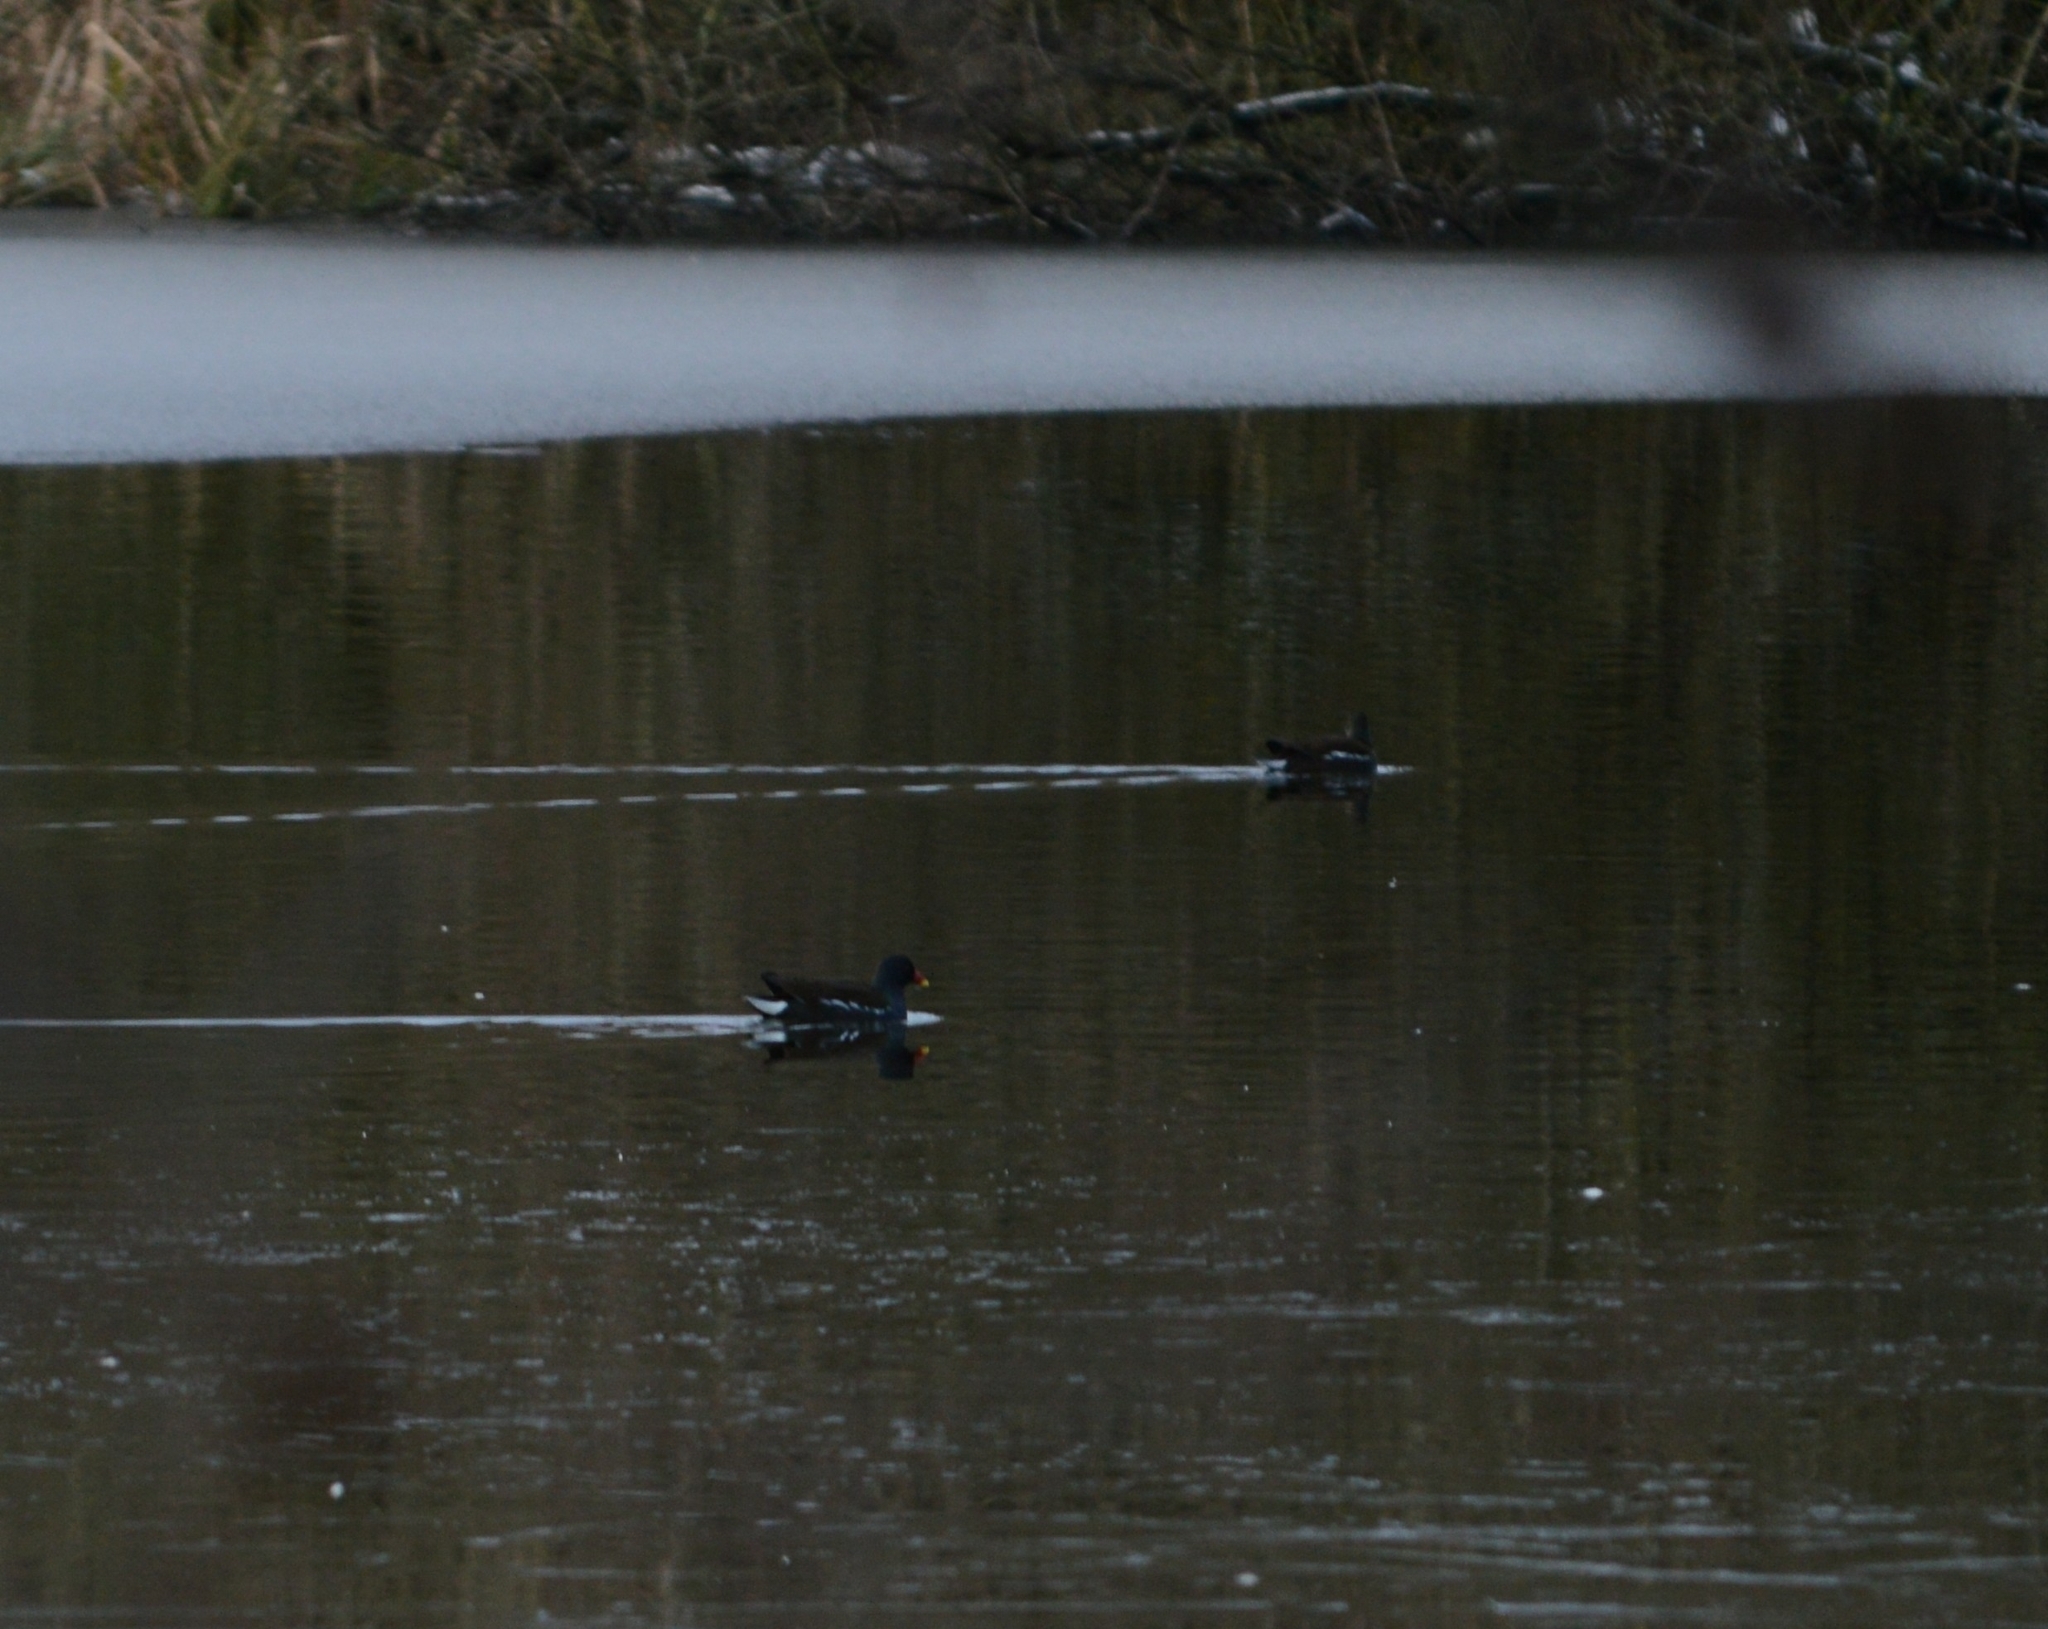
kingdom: Animalia
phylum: Chordata
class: Aves
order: Gruiformes
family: Rallidae
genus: Gallinula
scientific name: Gallinula chloropus
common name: Common moorhen
